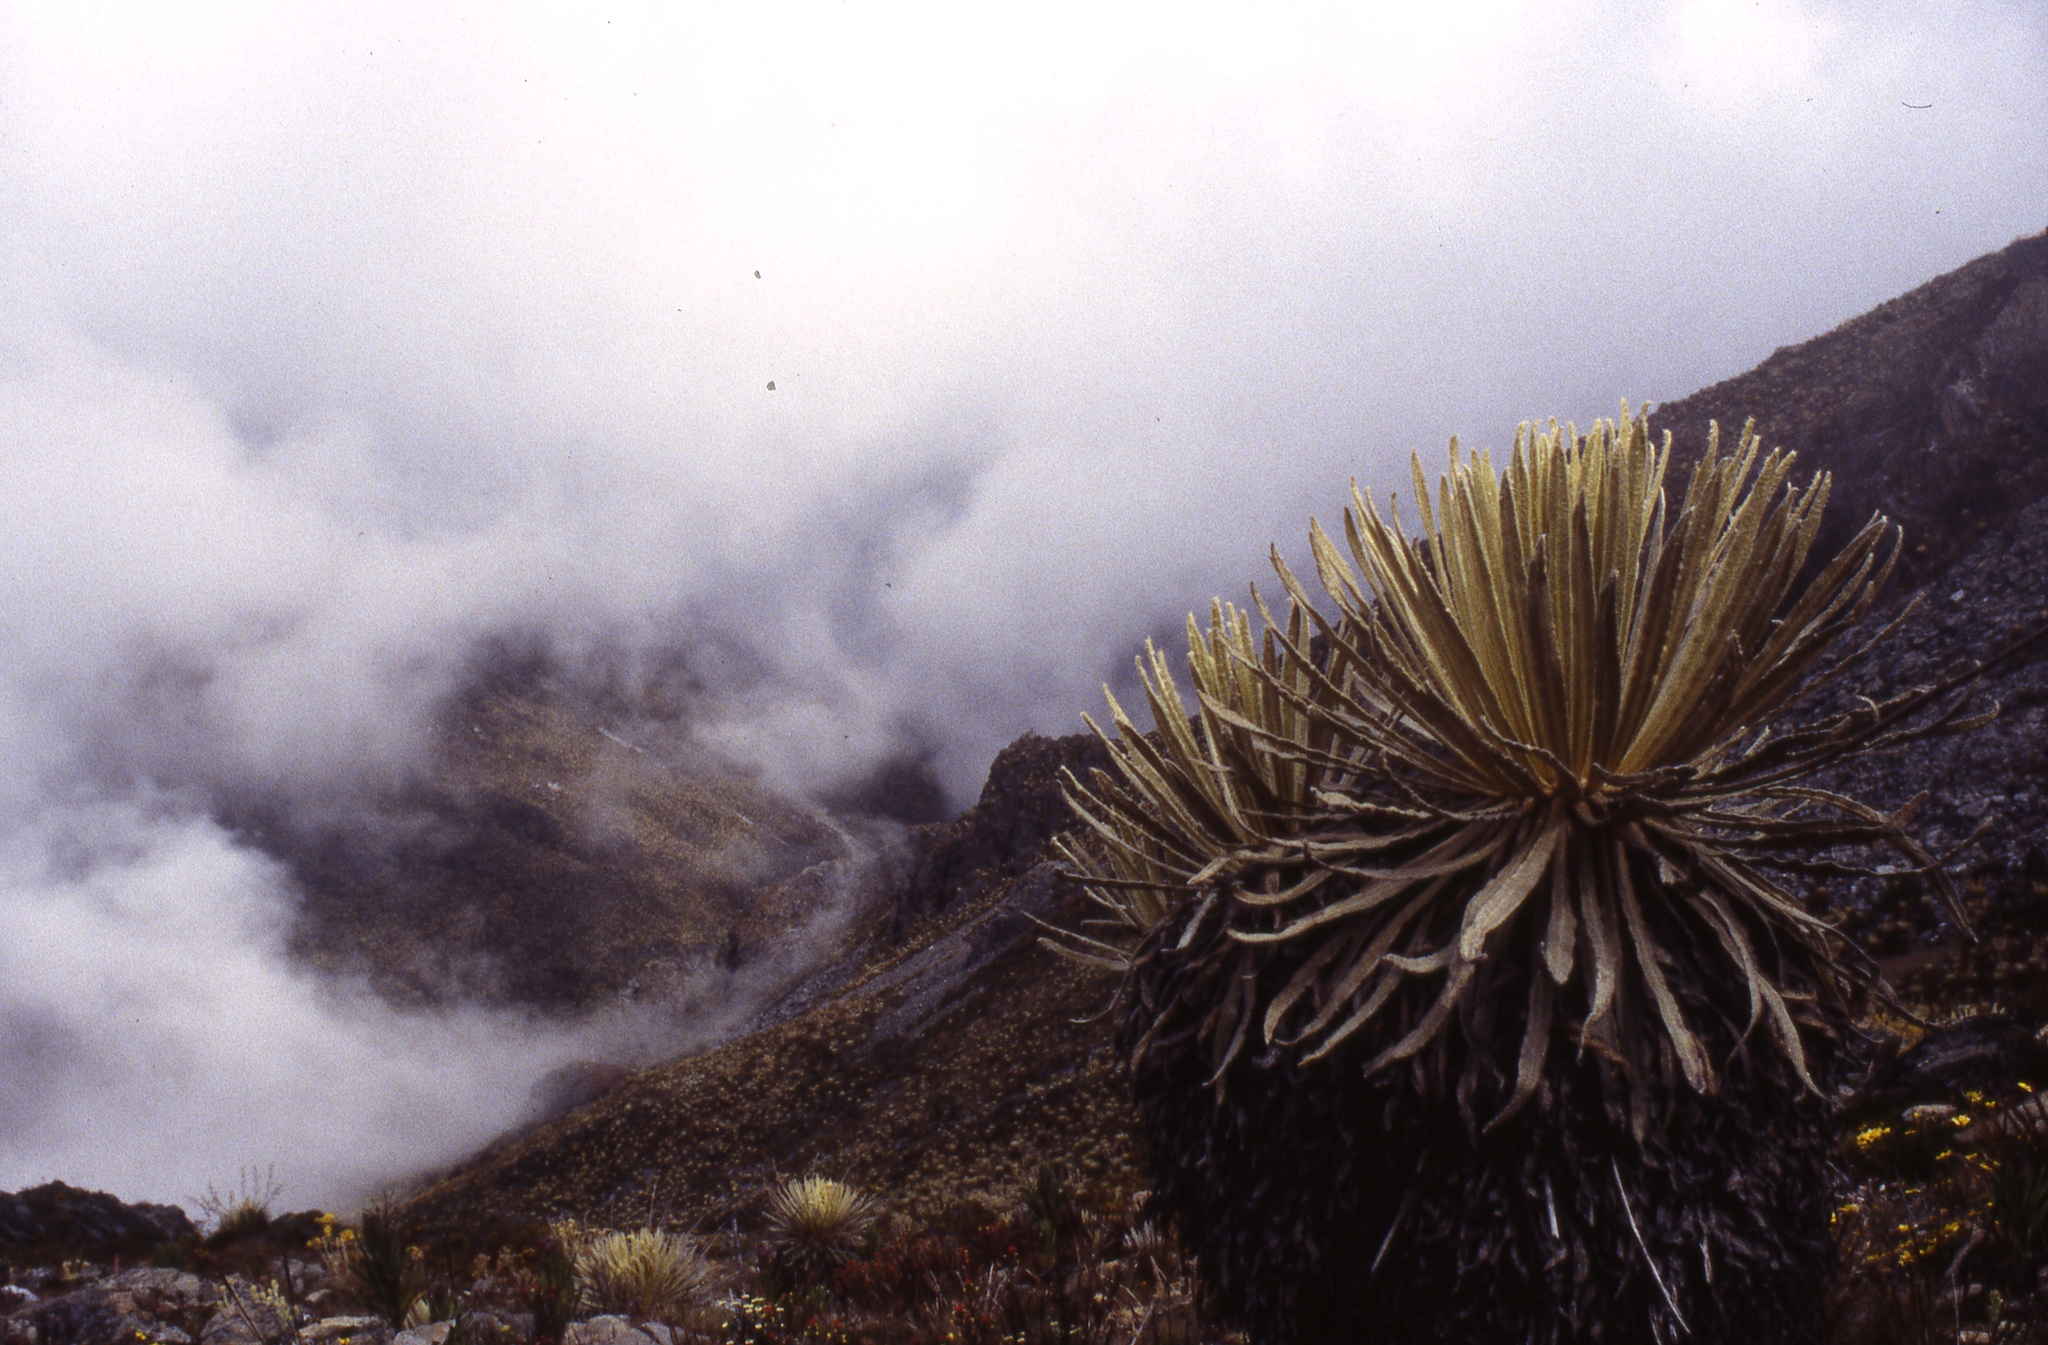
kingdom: Plantae
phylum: Tracheophyta
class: Magnoliopsida
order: Asterales
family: Asteraceae
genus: Espeletia
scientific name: Espeletia spicata
